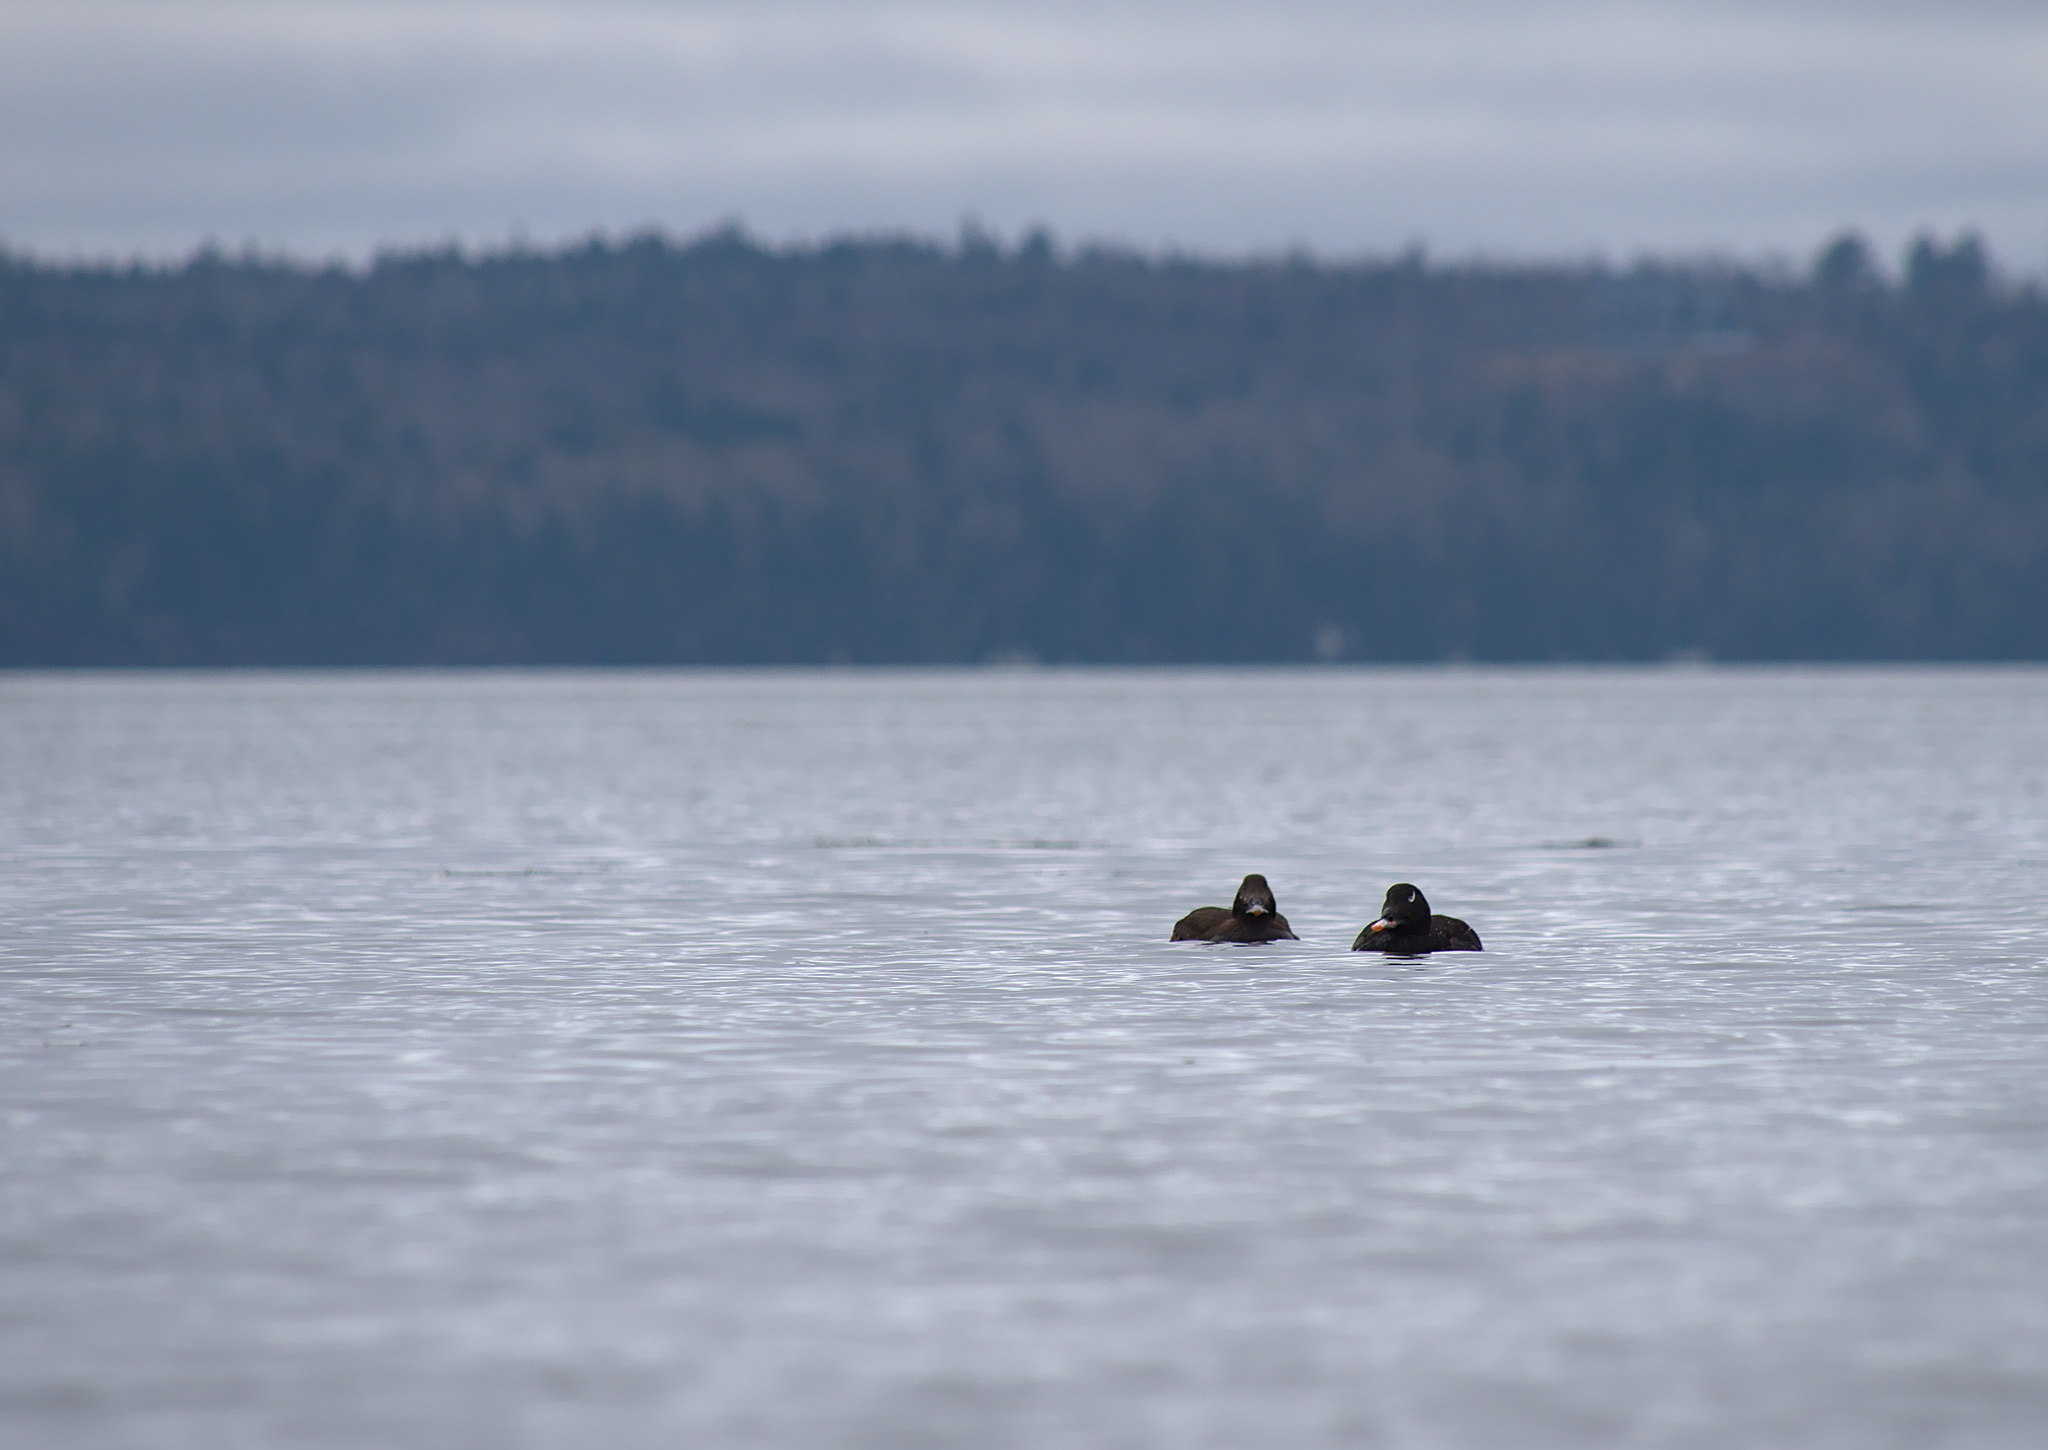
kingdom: Animalia
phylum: Chordata
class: Aves
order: Anseriformes
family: Anatidae
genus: Melanitta
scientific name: Melanitta deglandi
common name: White-winged scoter
